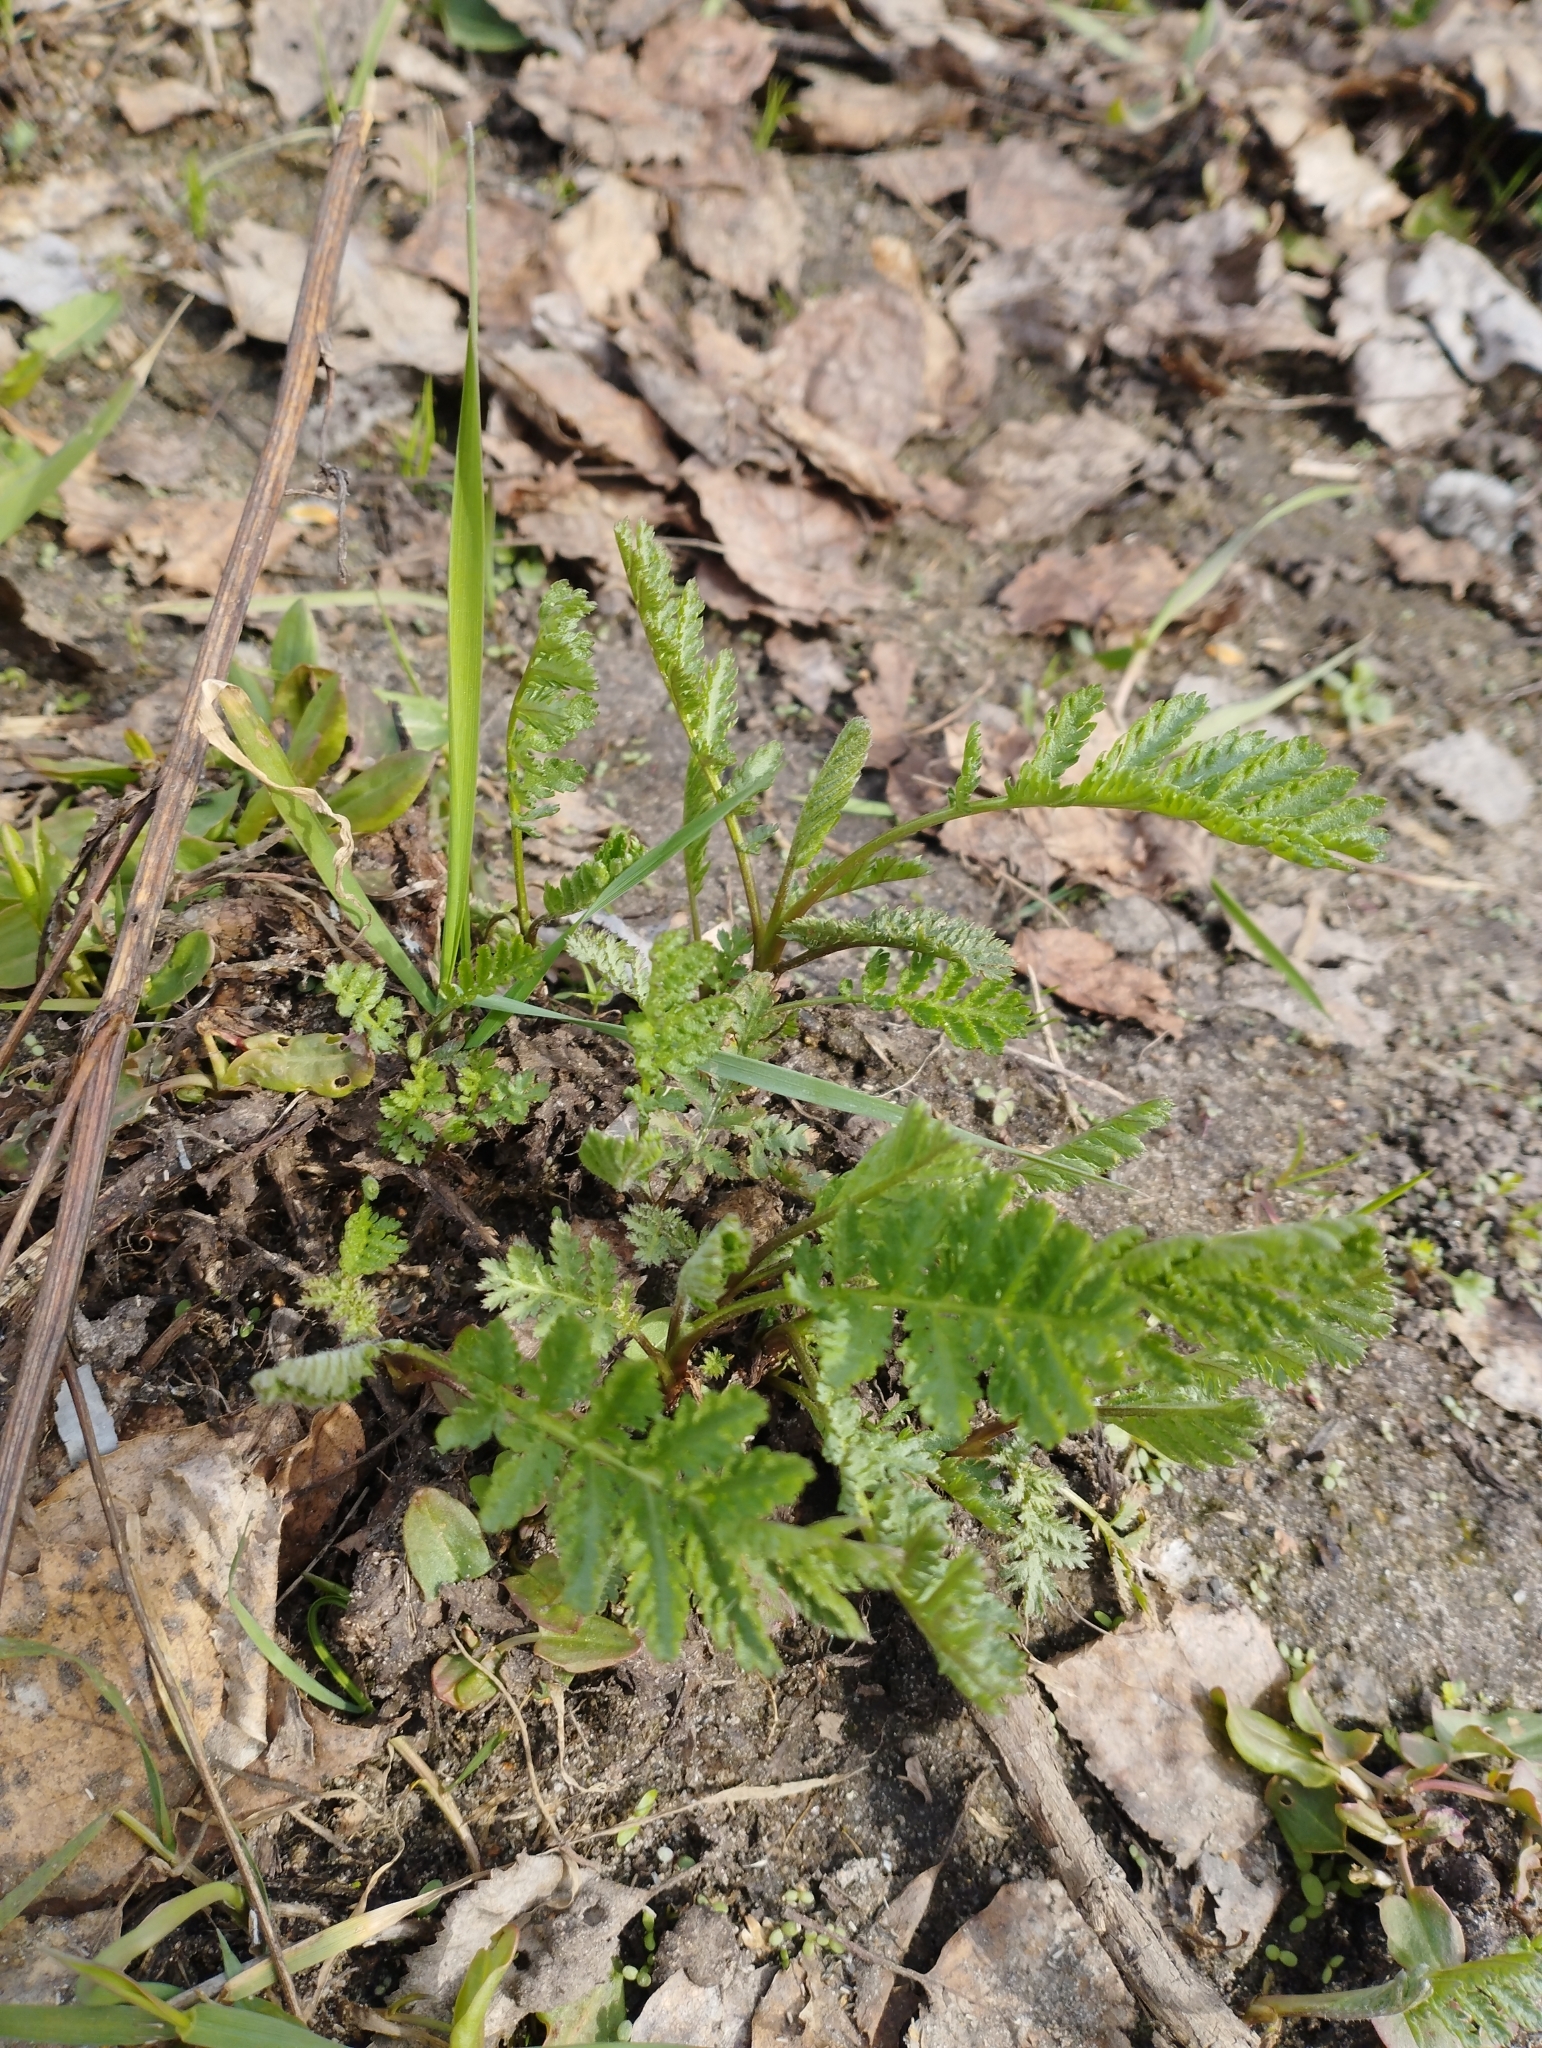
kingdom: Plantae
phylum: Tracheophyta
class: Magnoliopsida
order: Asterales
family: Asteraceae
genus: Tanacetum
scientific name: Tanacetum vulgare
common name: Common tansy
